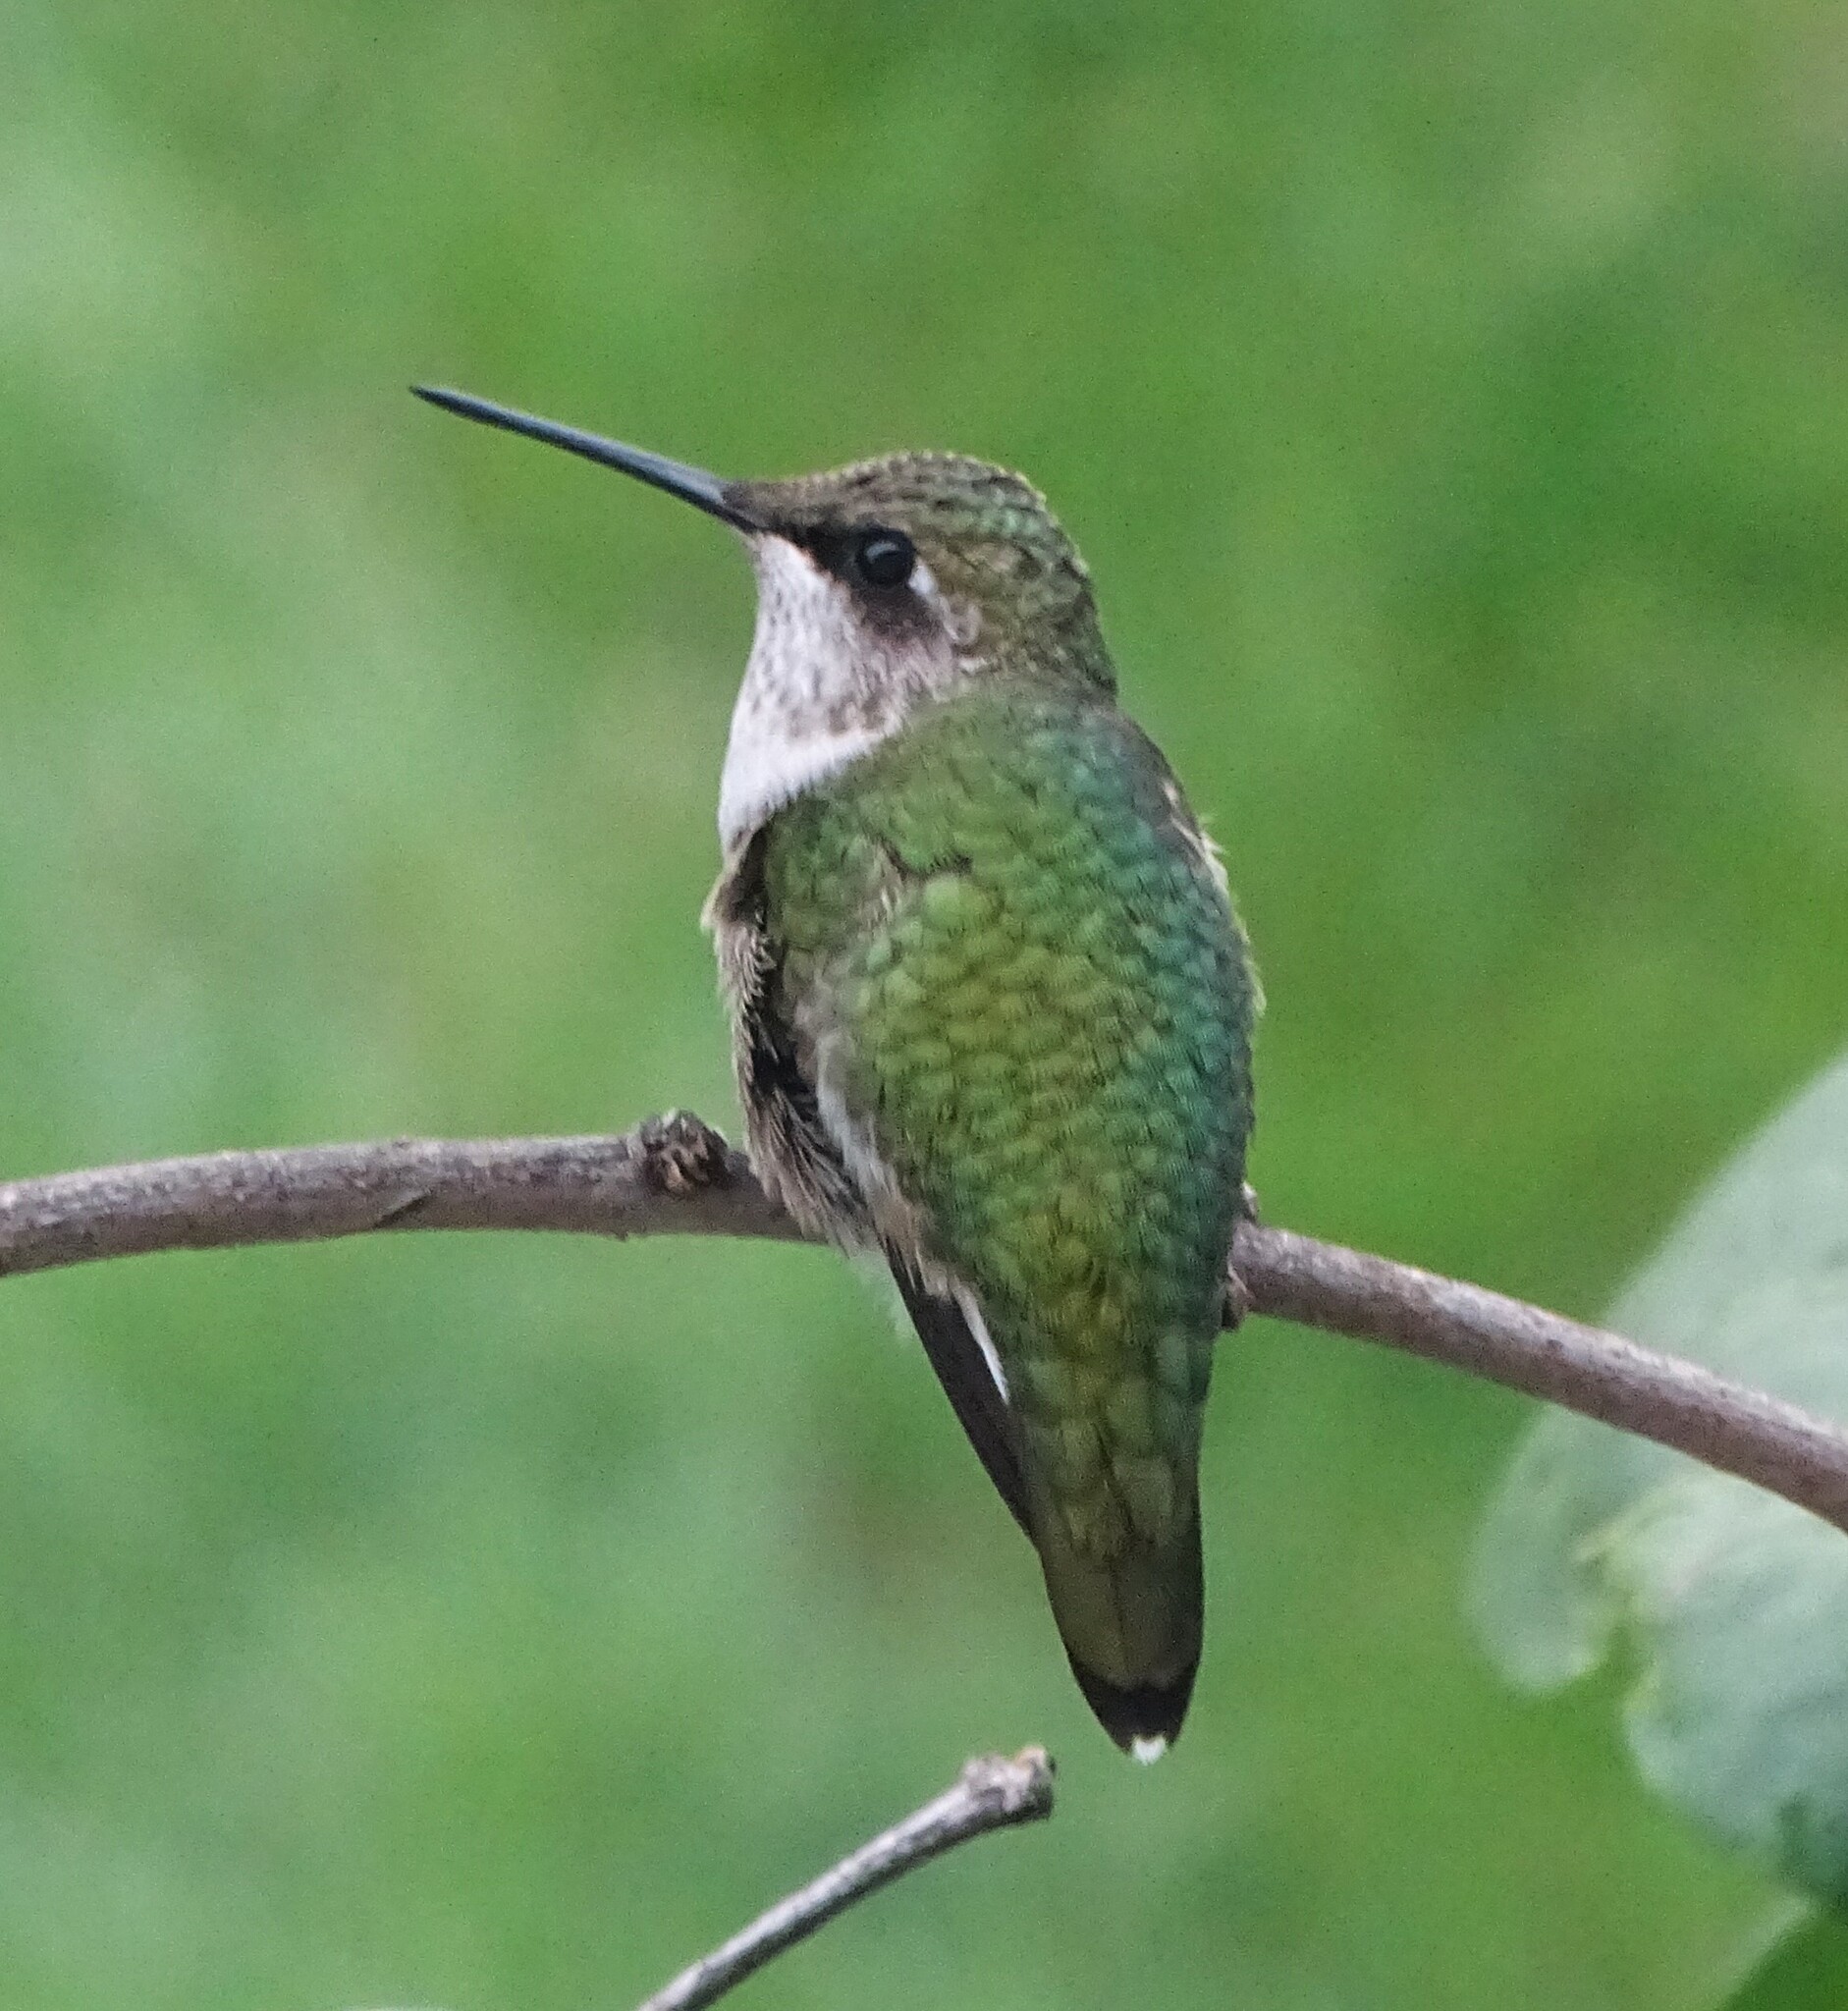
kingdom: Animalia
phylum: Chordata
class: Aves
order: Apodiformes
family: Trochilidae
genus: Archilochus
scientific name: Archilochus colubris
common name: Ruby-throated hummingbird
